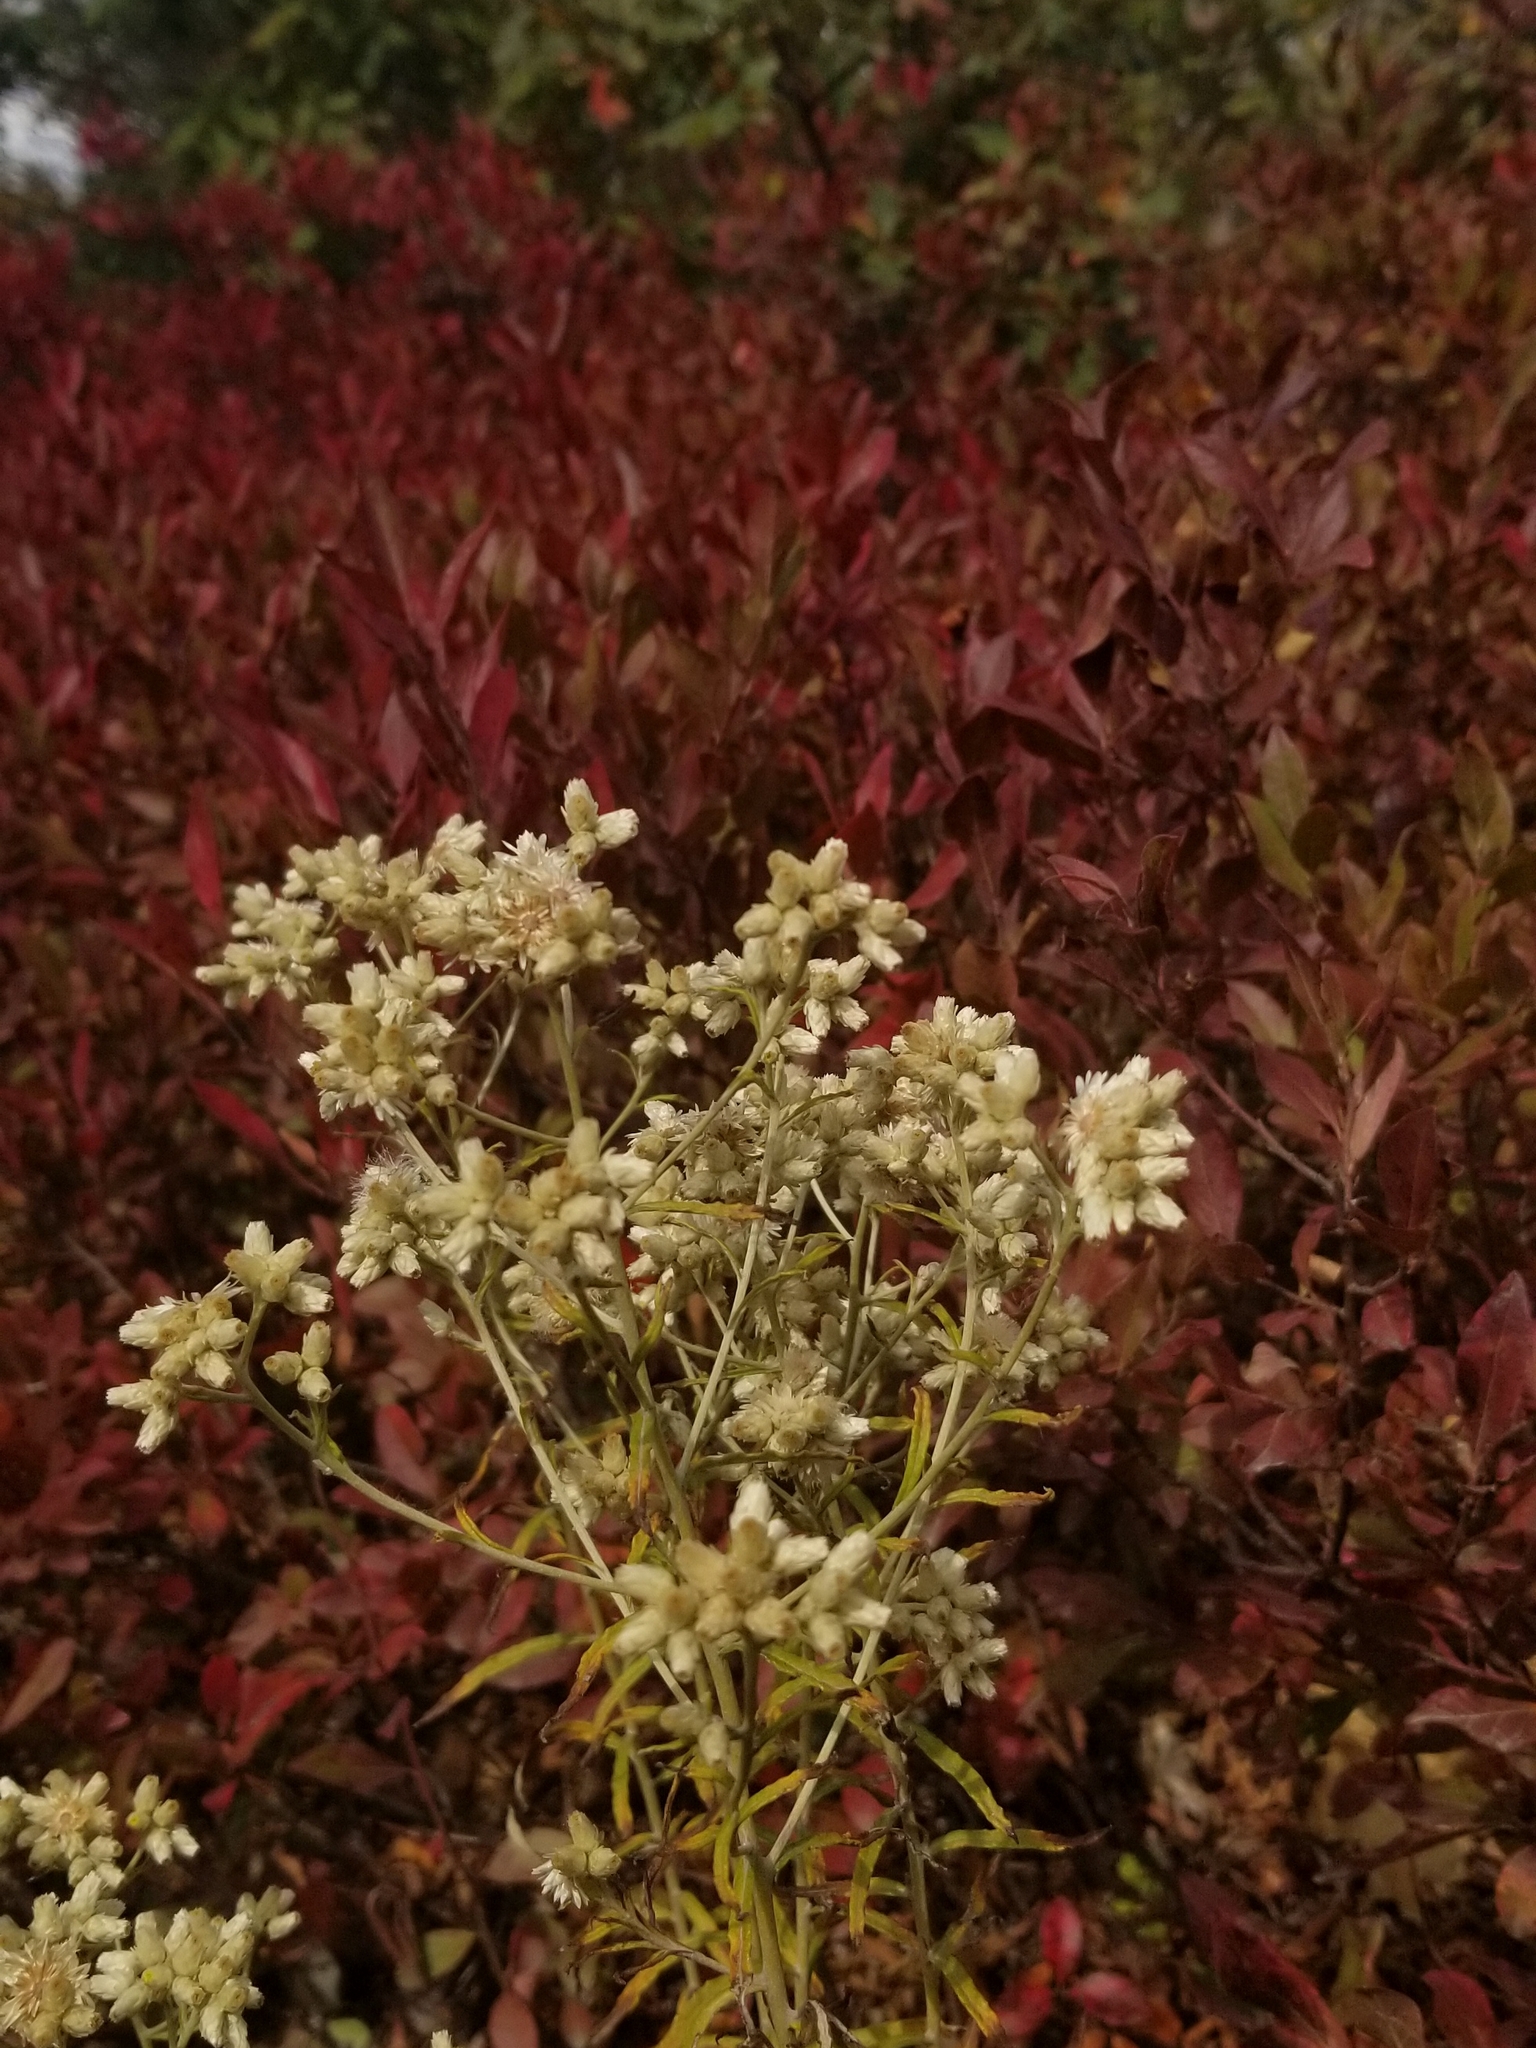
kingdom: Plantae
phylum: Tracheophyta
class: Magnoliopsida
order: Asterales
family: Asteraceae
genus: Pseudognaphalium
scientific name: Pseudognaphalium obtusifolium
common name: Eastern rabbit-tobacco
